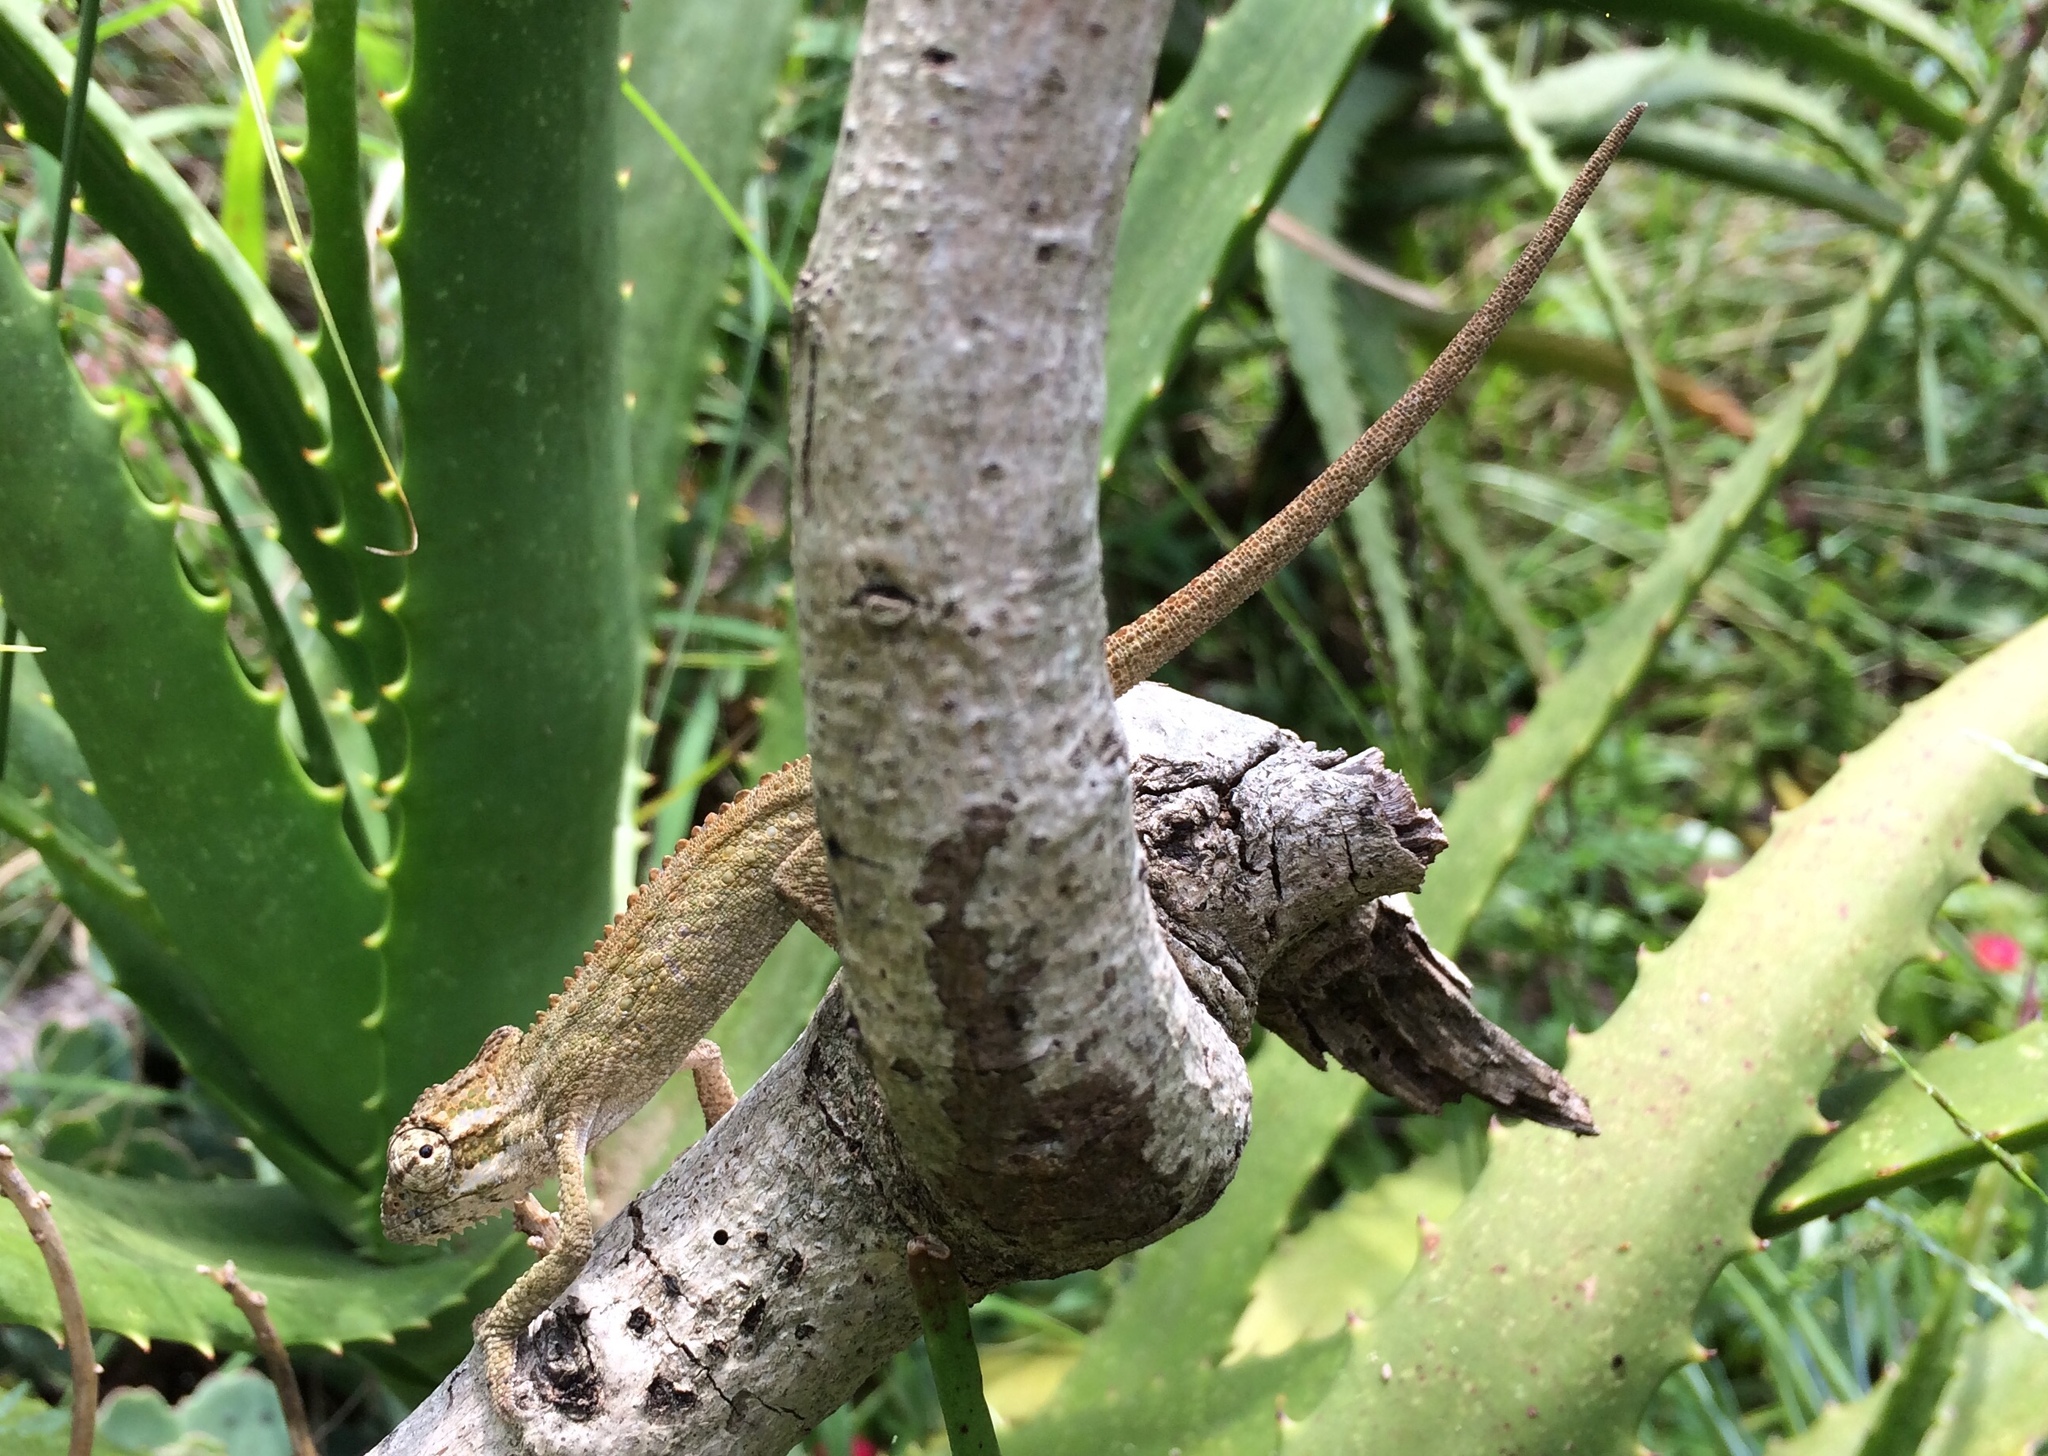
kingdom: Animalia
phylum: Chordata
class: Squamata
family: Chamaeleonidae
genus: Bradypodion
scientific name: Bradypodion melanocephalum
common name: Black-headed dwarf chameleon
